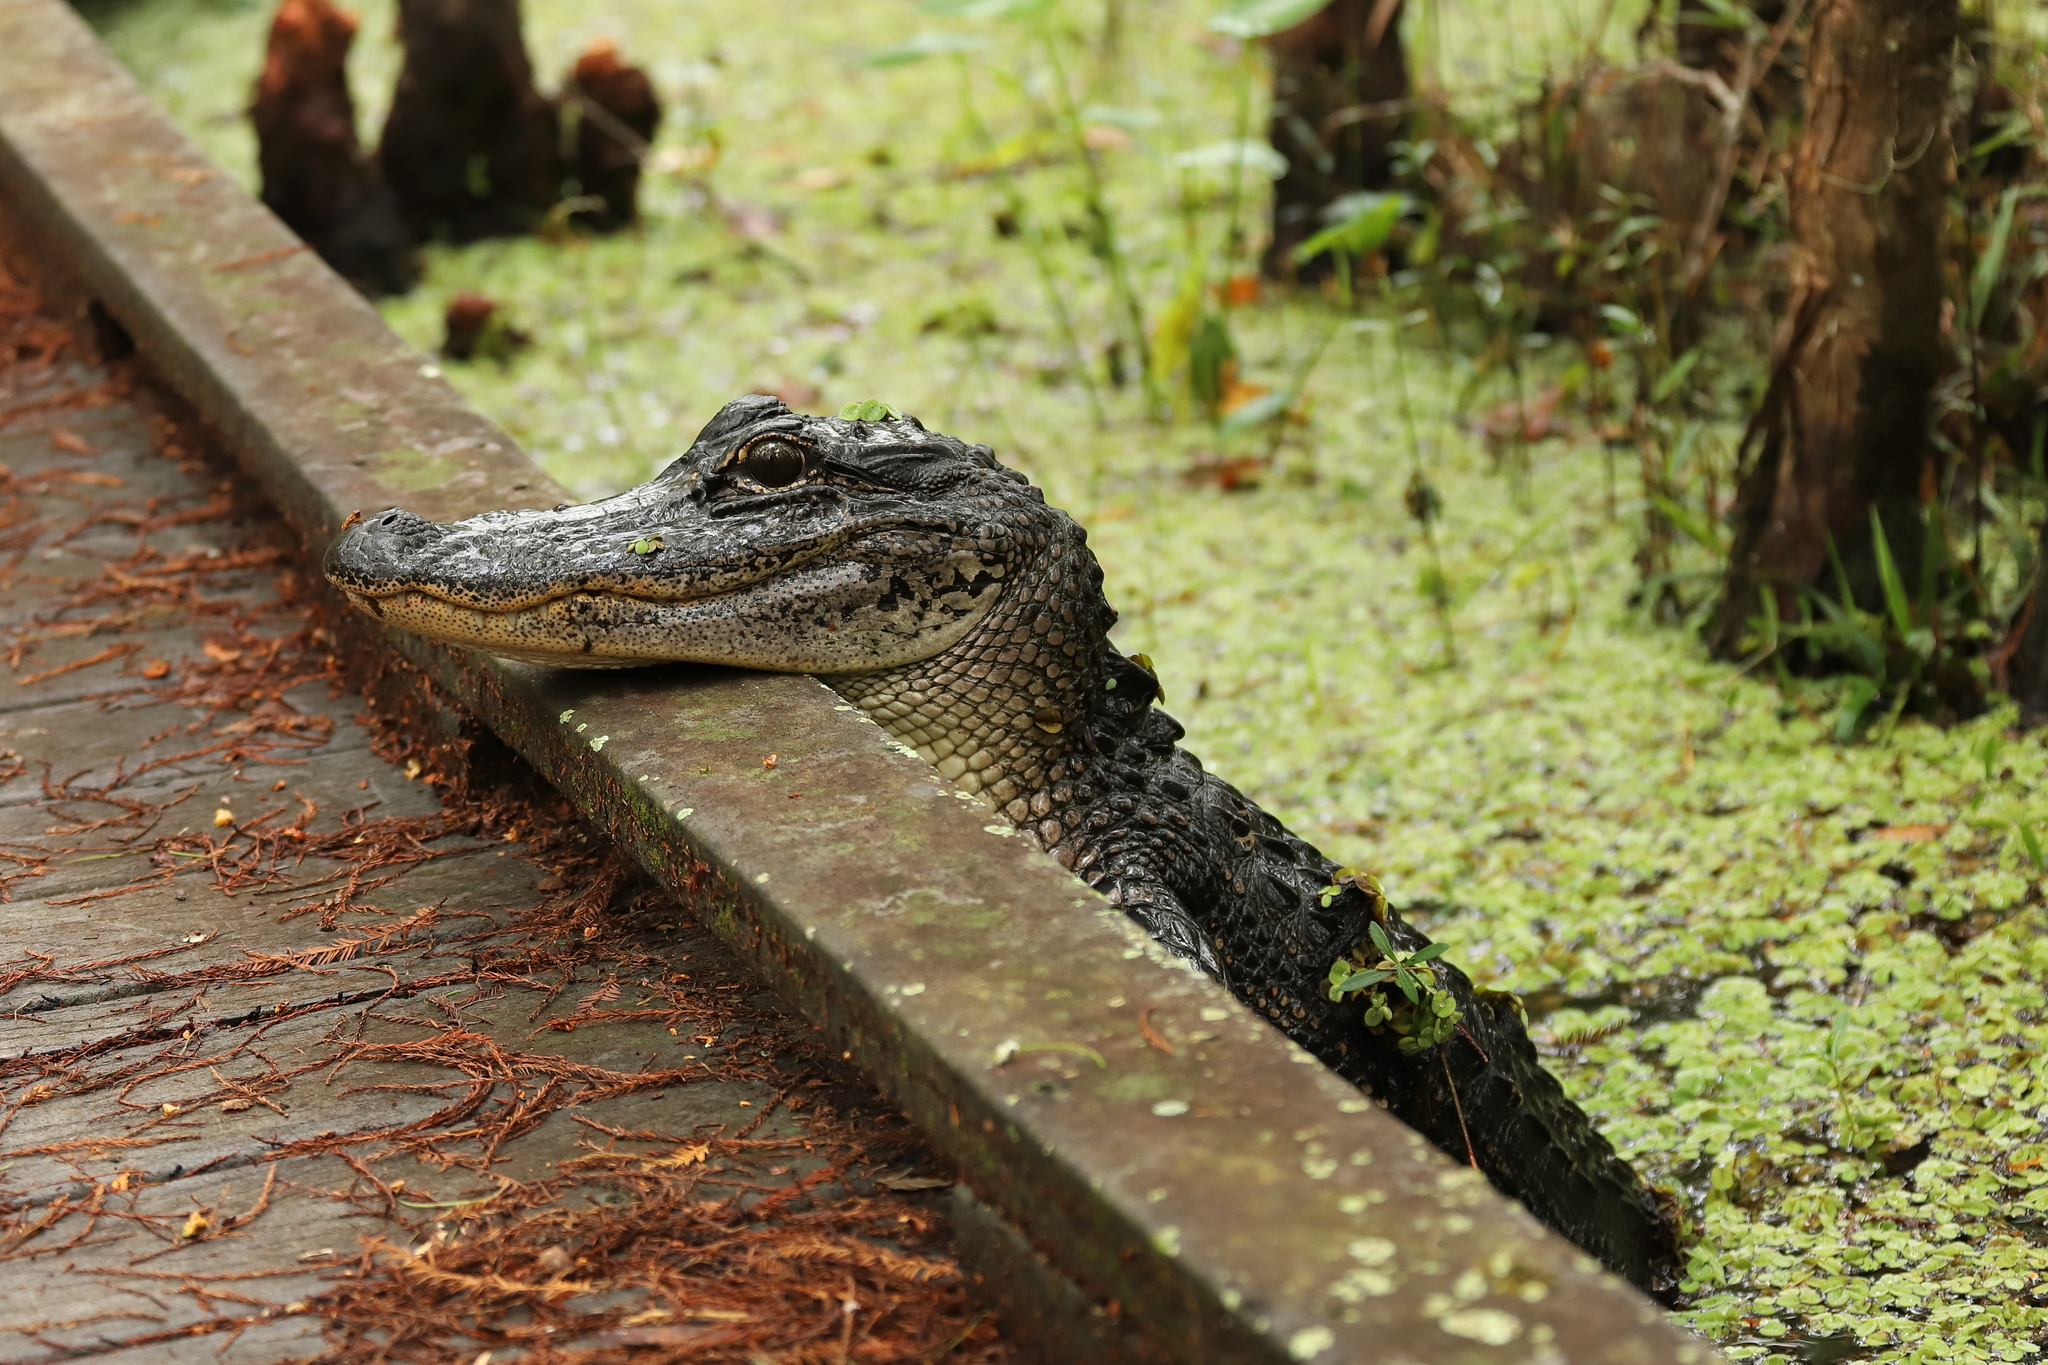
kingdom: Animalia
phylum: Chordata
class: Crocodylia
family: Alligatoridae
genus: Alligator
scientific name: Alligator mississippiensis
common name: American alligator
